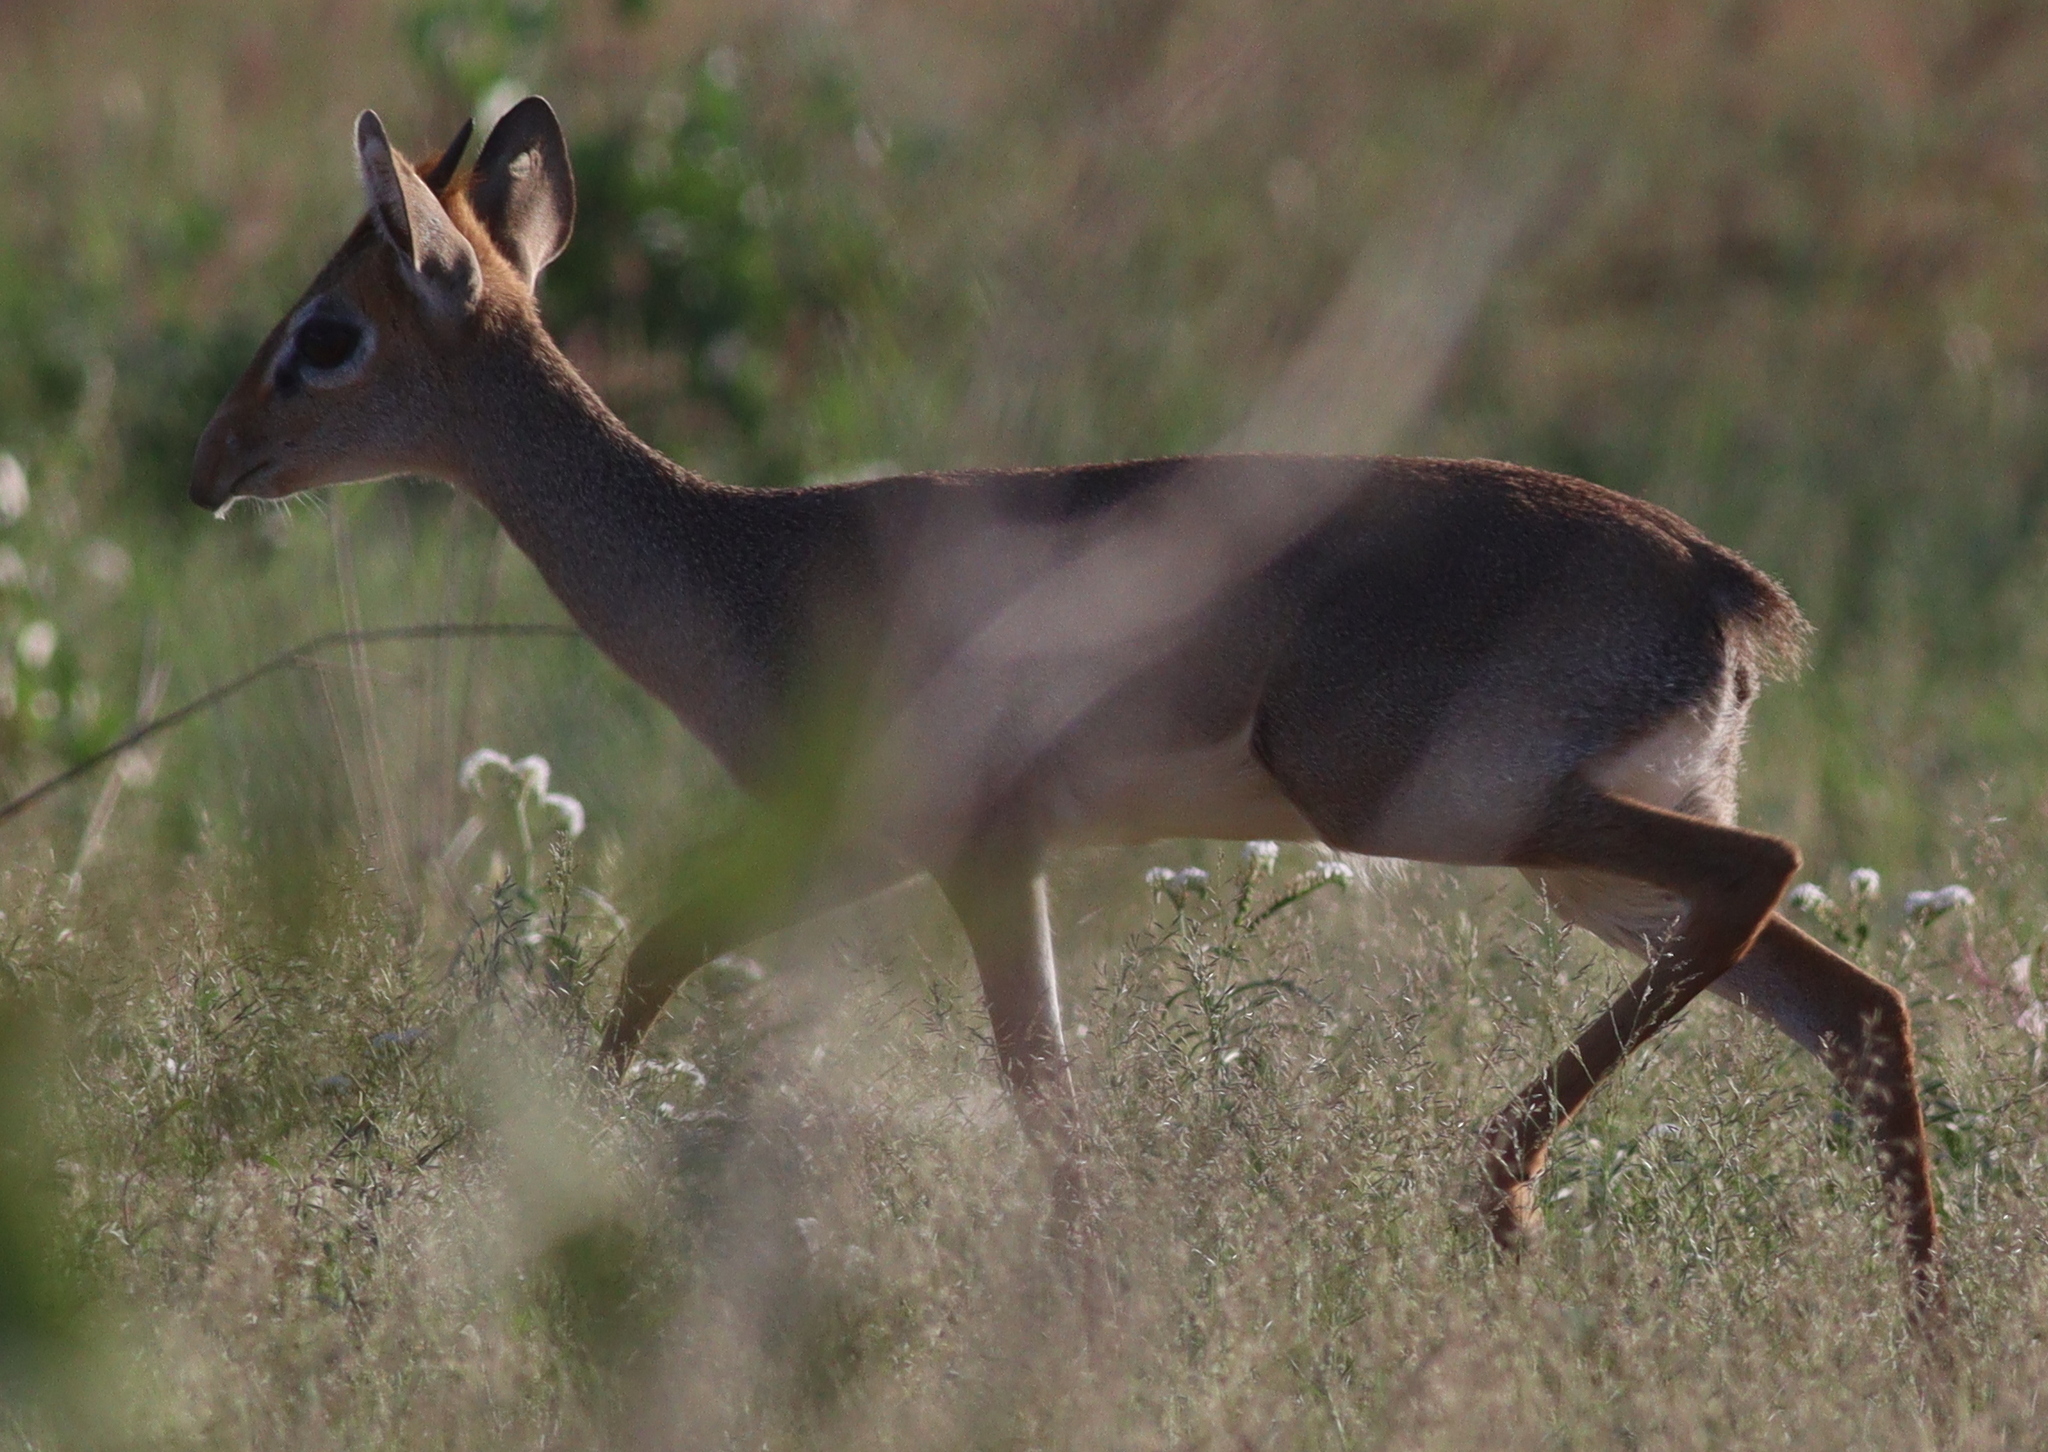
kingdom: Animalia
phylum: Chordata
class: Mammalia
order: Artiodactyla
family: Bovidae
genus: Madoqua
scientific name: Madoqua kirkii
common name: Kirk's dik-dik
